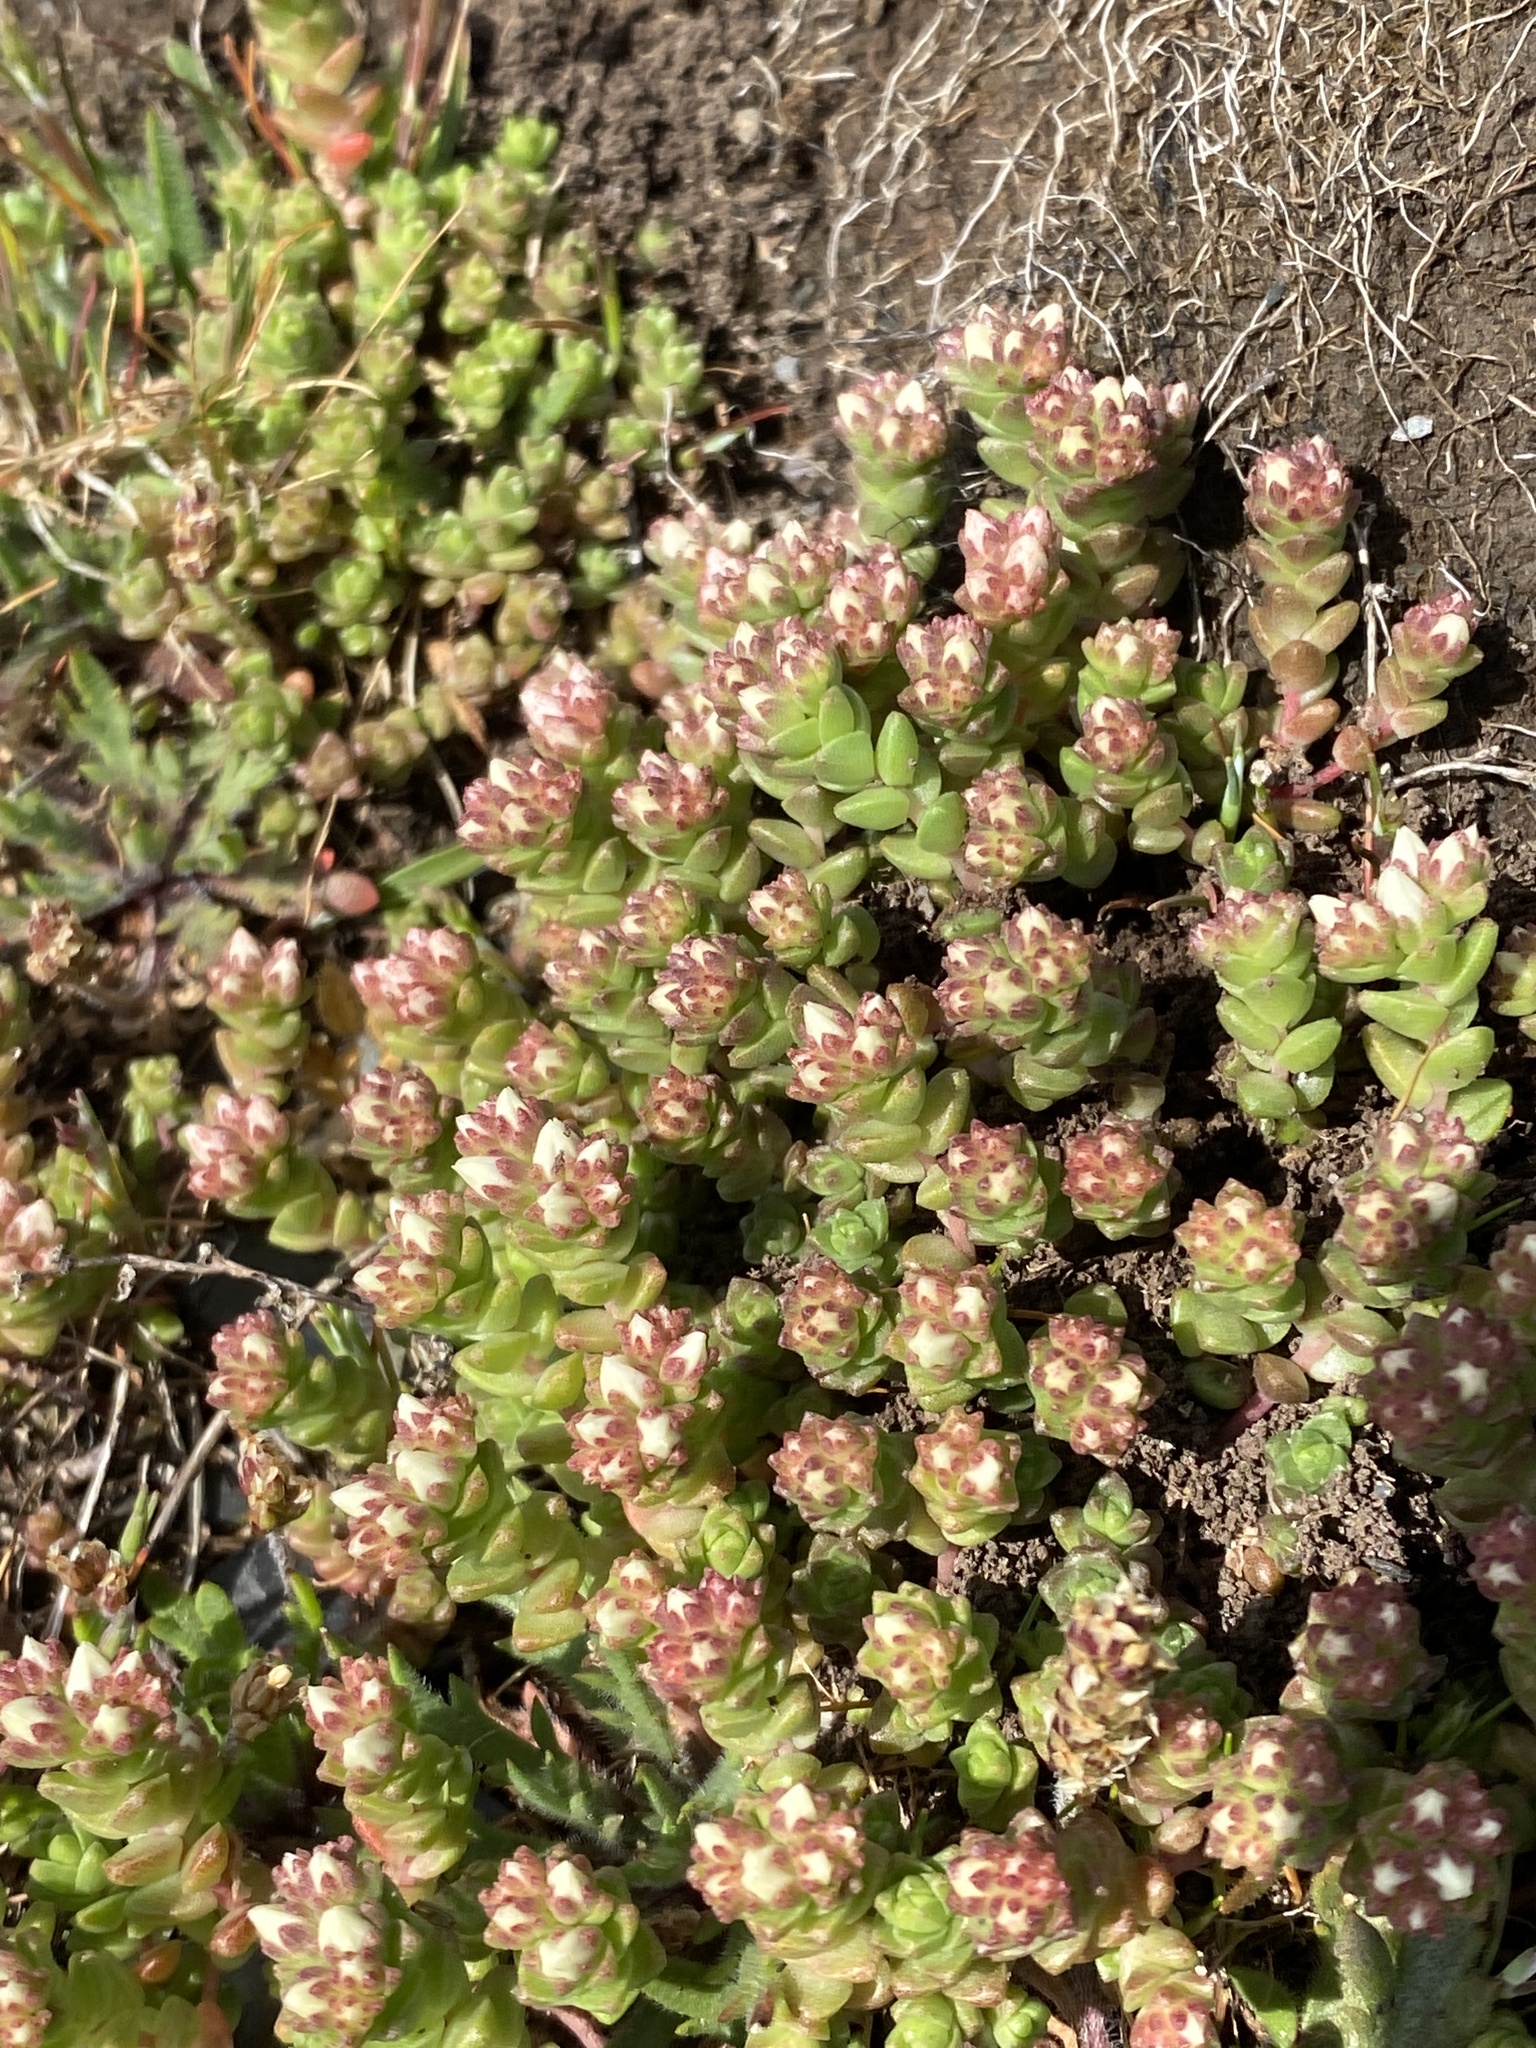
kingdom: Plantae
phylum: Tracheophyta
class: Magnoliopsida
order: Saxifragales
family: Crassulaceae
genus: Sedum
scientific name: Sedum anglicum
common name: English stonecrop
